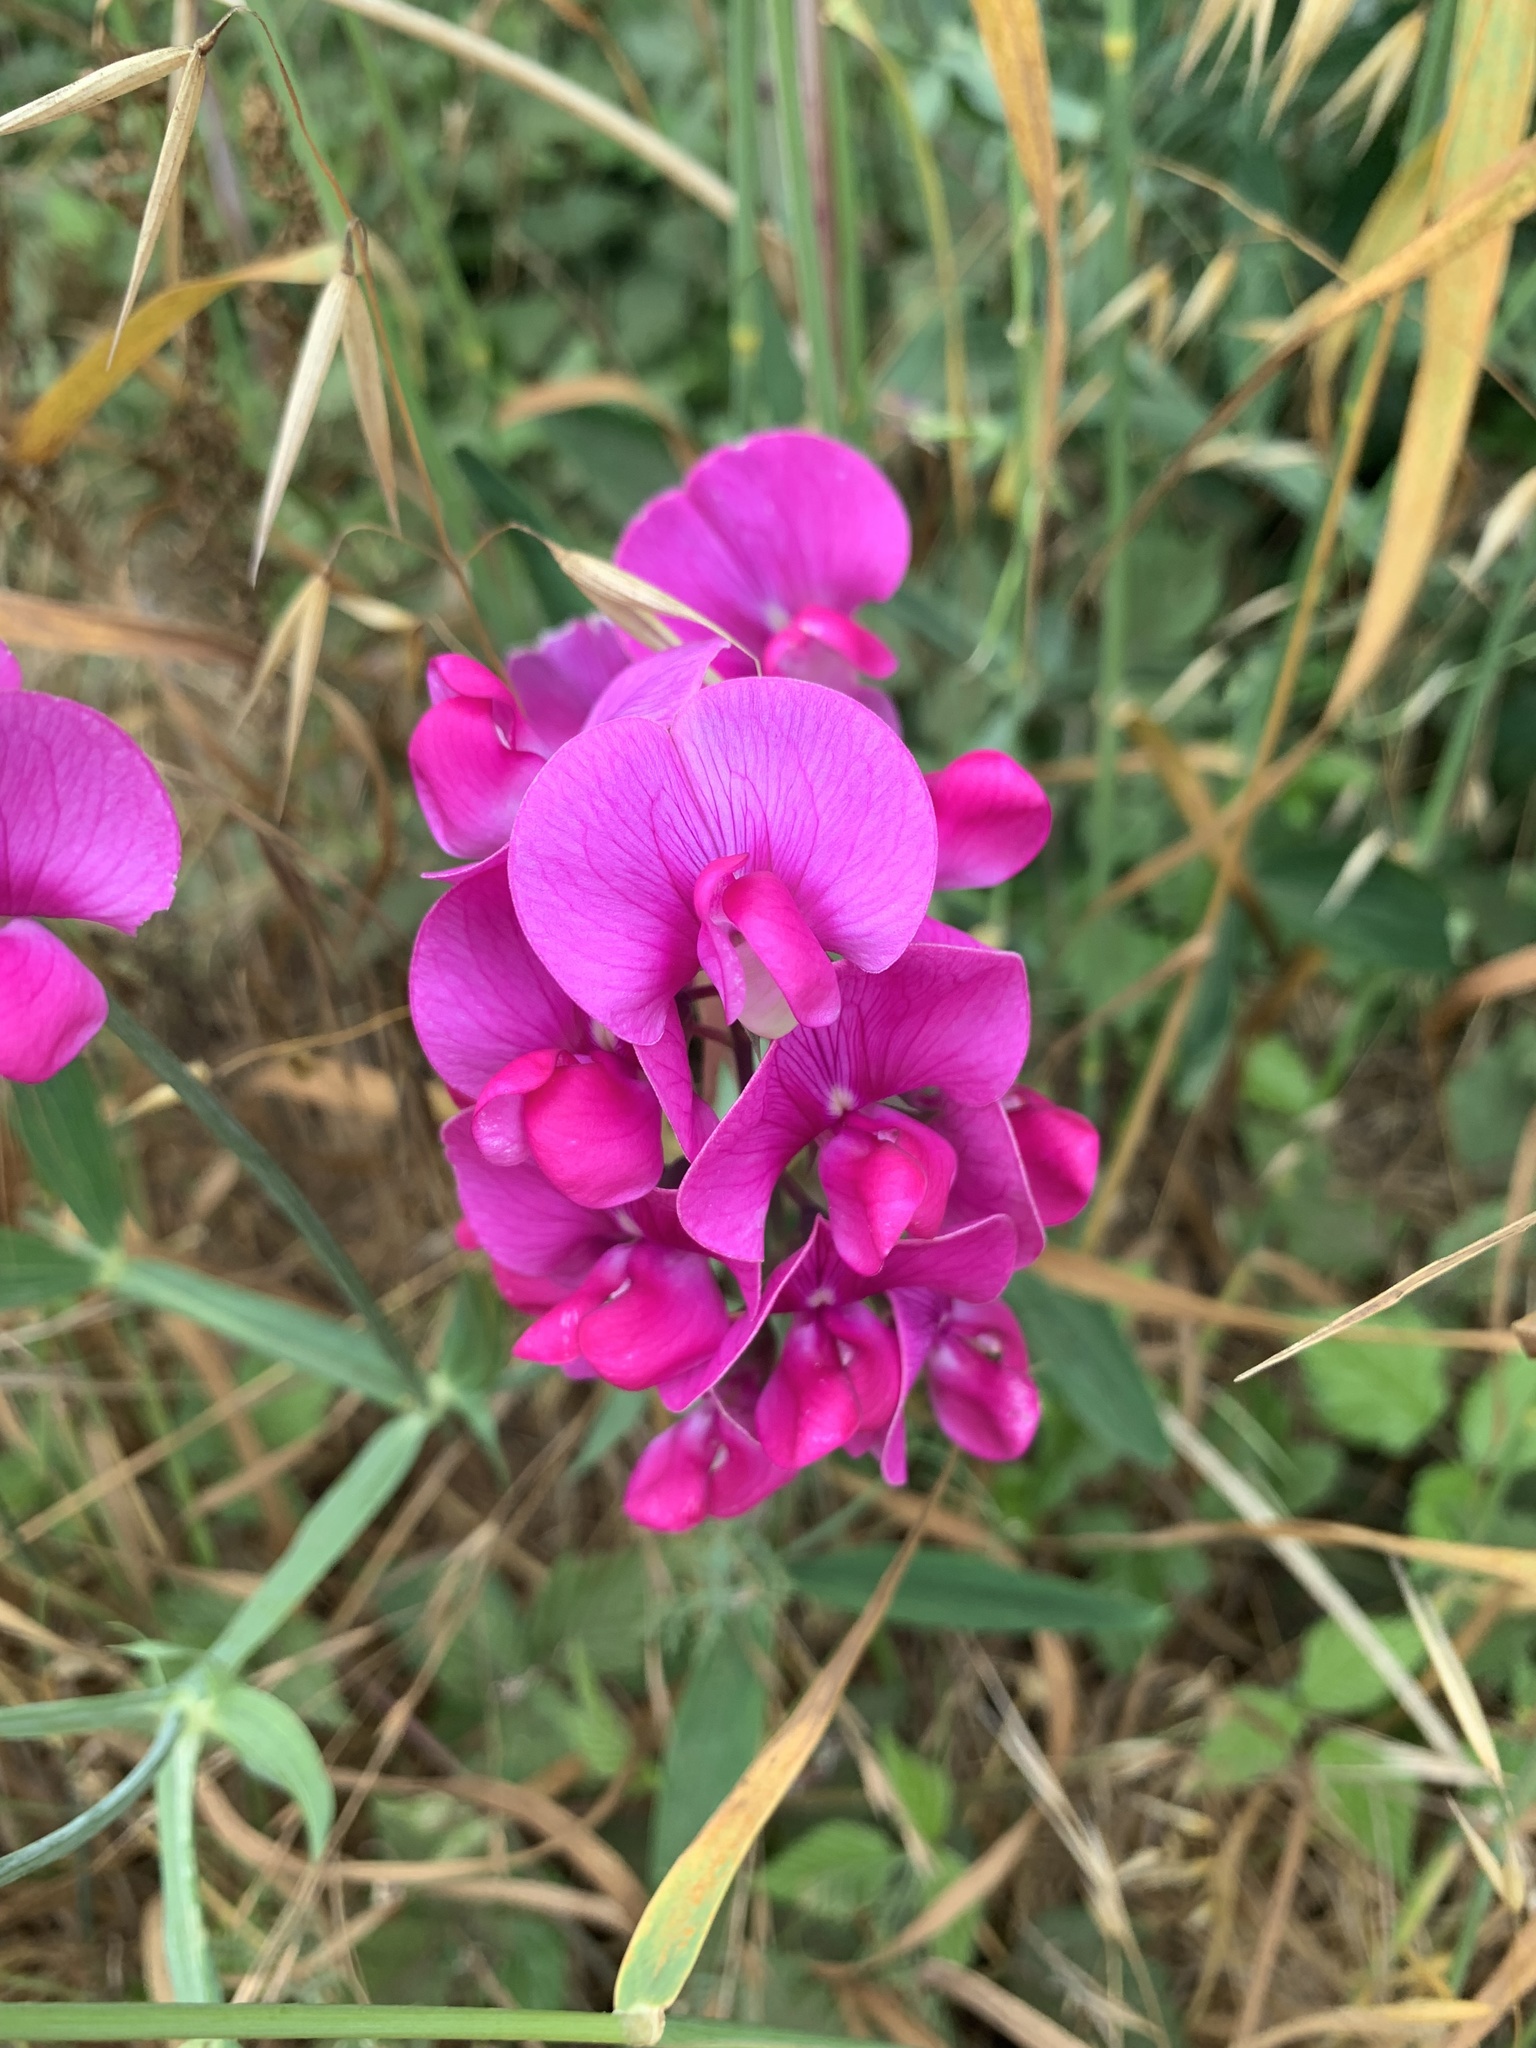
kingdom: Plantae
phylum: Tracheophyta
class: Magnoliopsida
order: Fabales
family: Fabaceae
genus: Lathyrus
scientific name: Lathyrus latifolius
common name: Perennial pea
